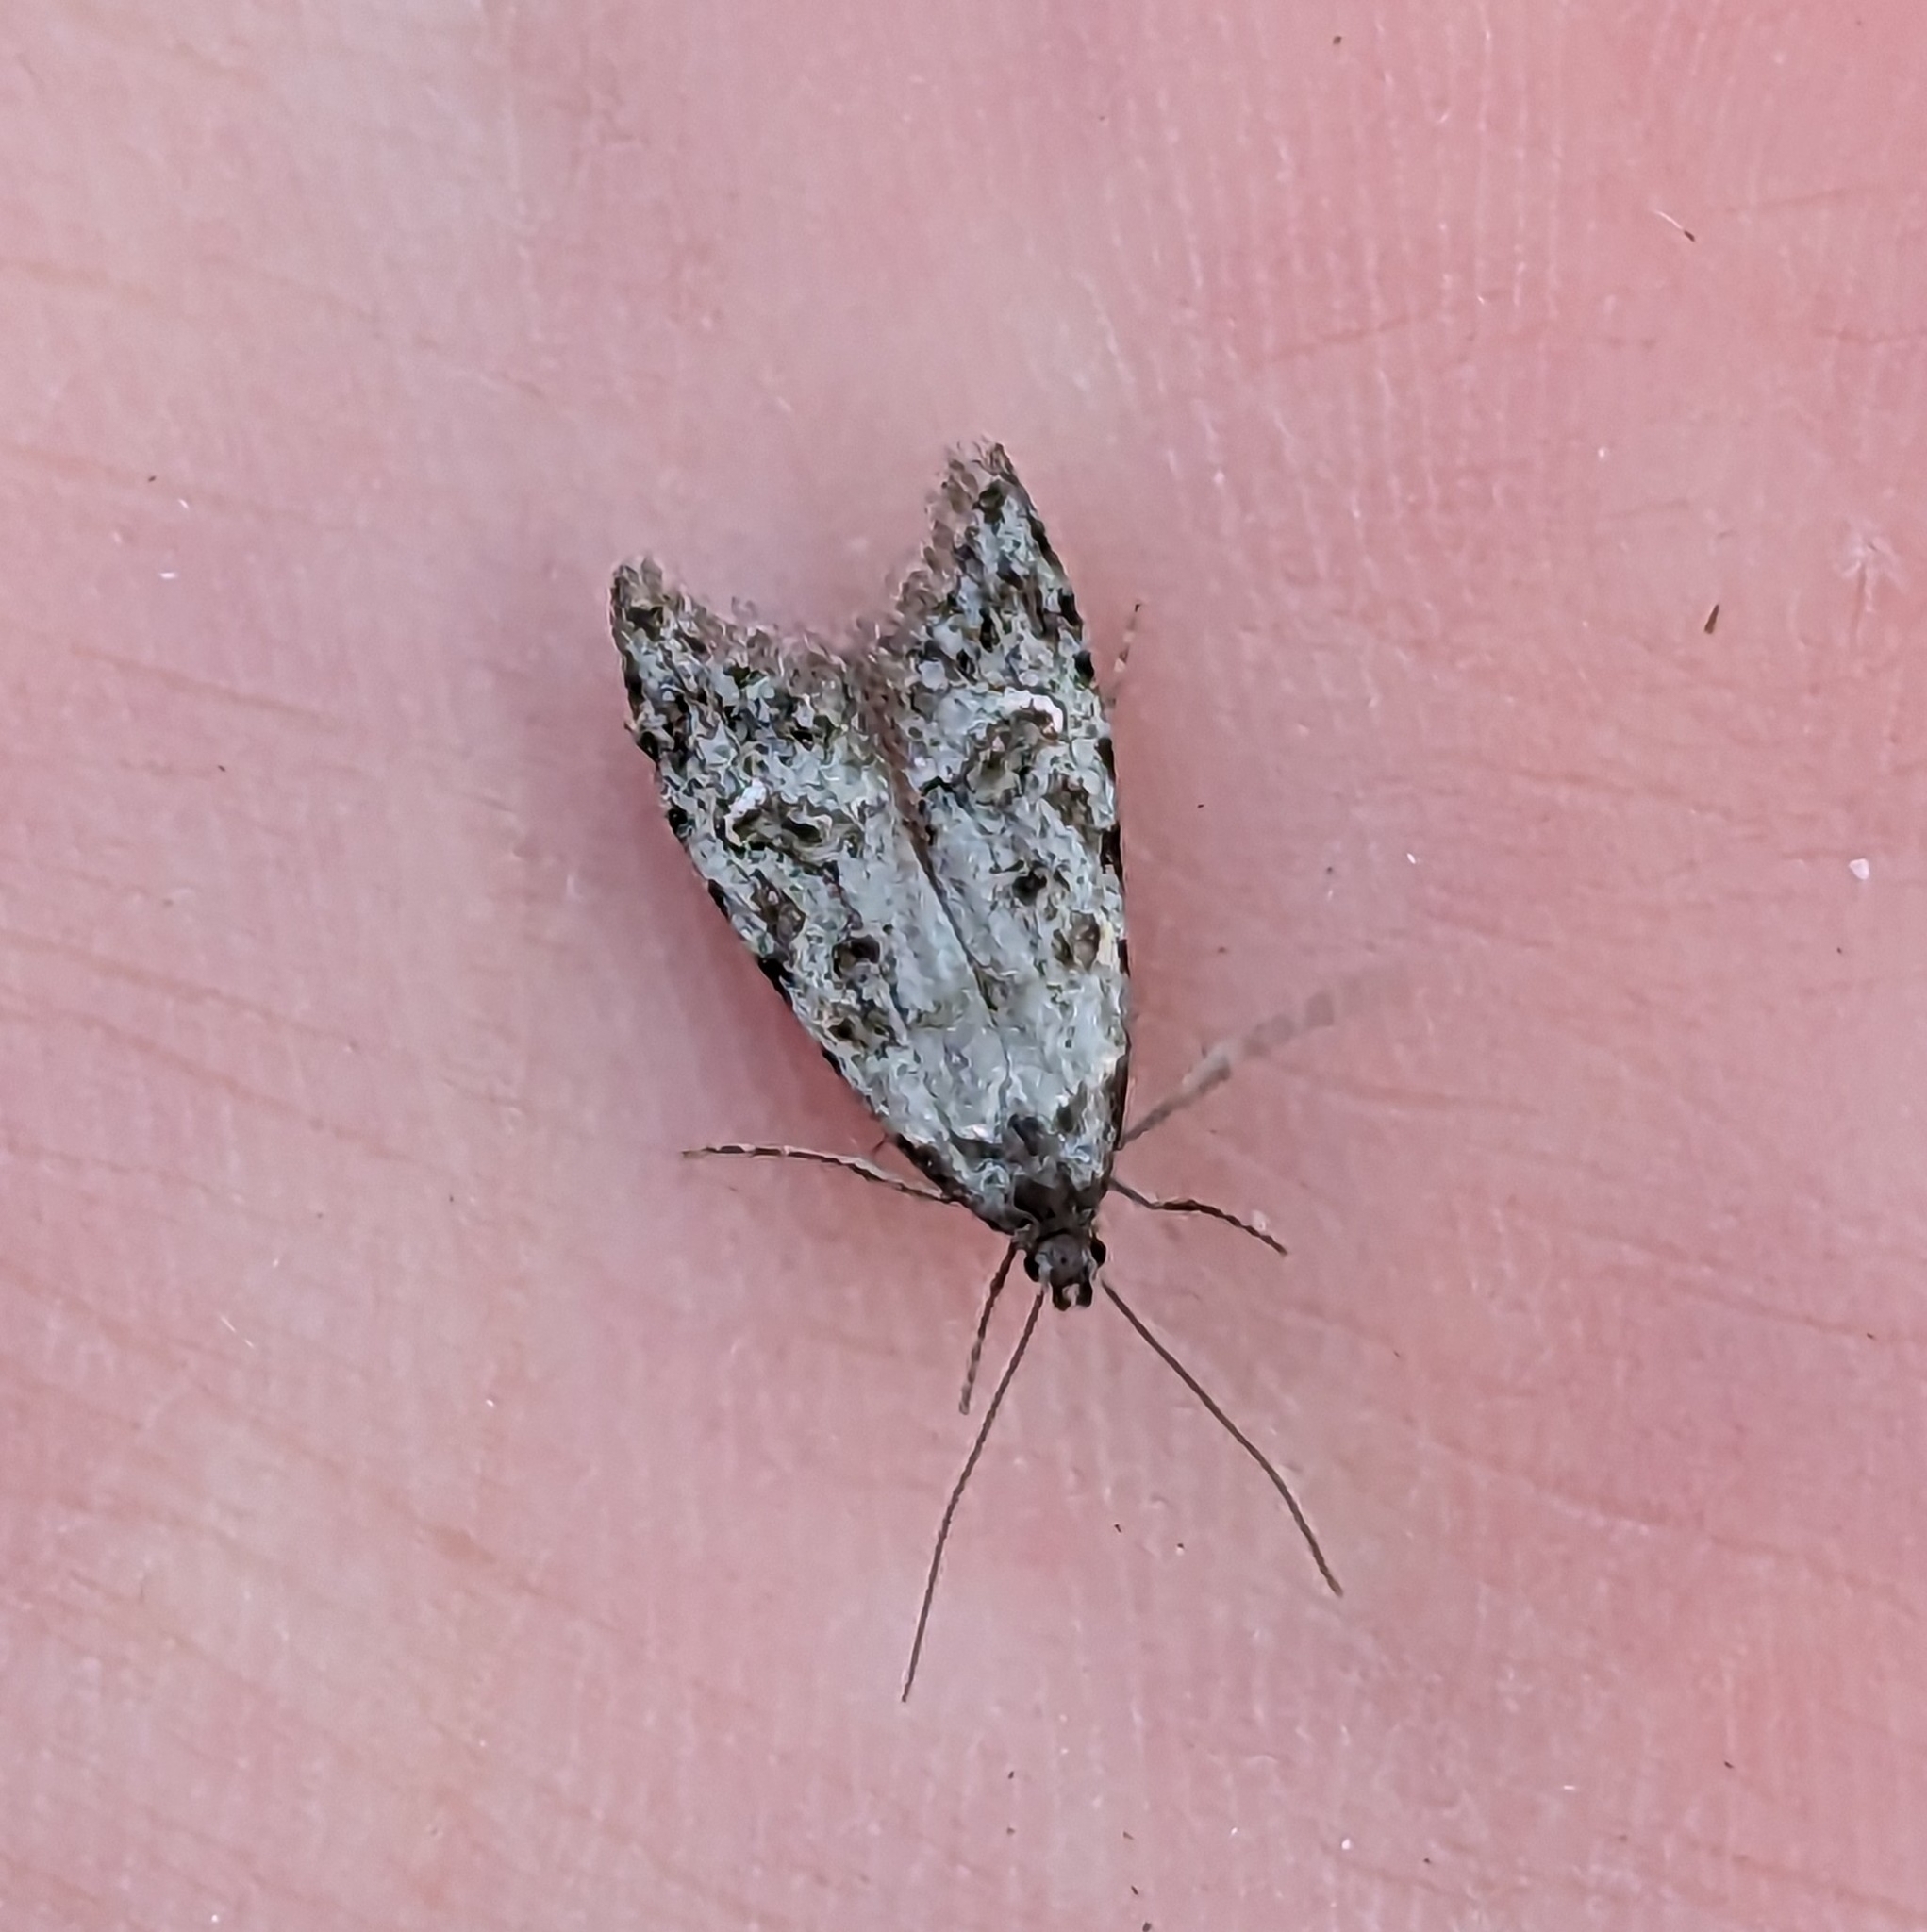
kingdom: Animalia
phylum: Arthropoda
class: Insecta
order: Lepidoptera
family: Carposinidae
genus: Bondia
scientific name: Bondia crescentella
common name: Crescent-marked bondia
